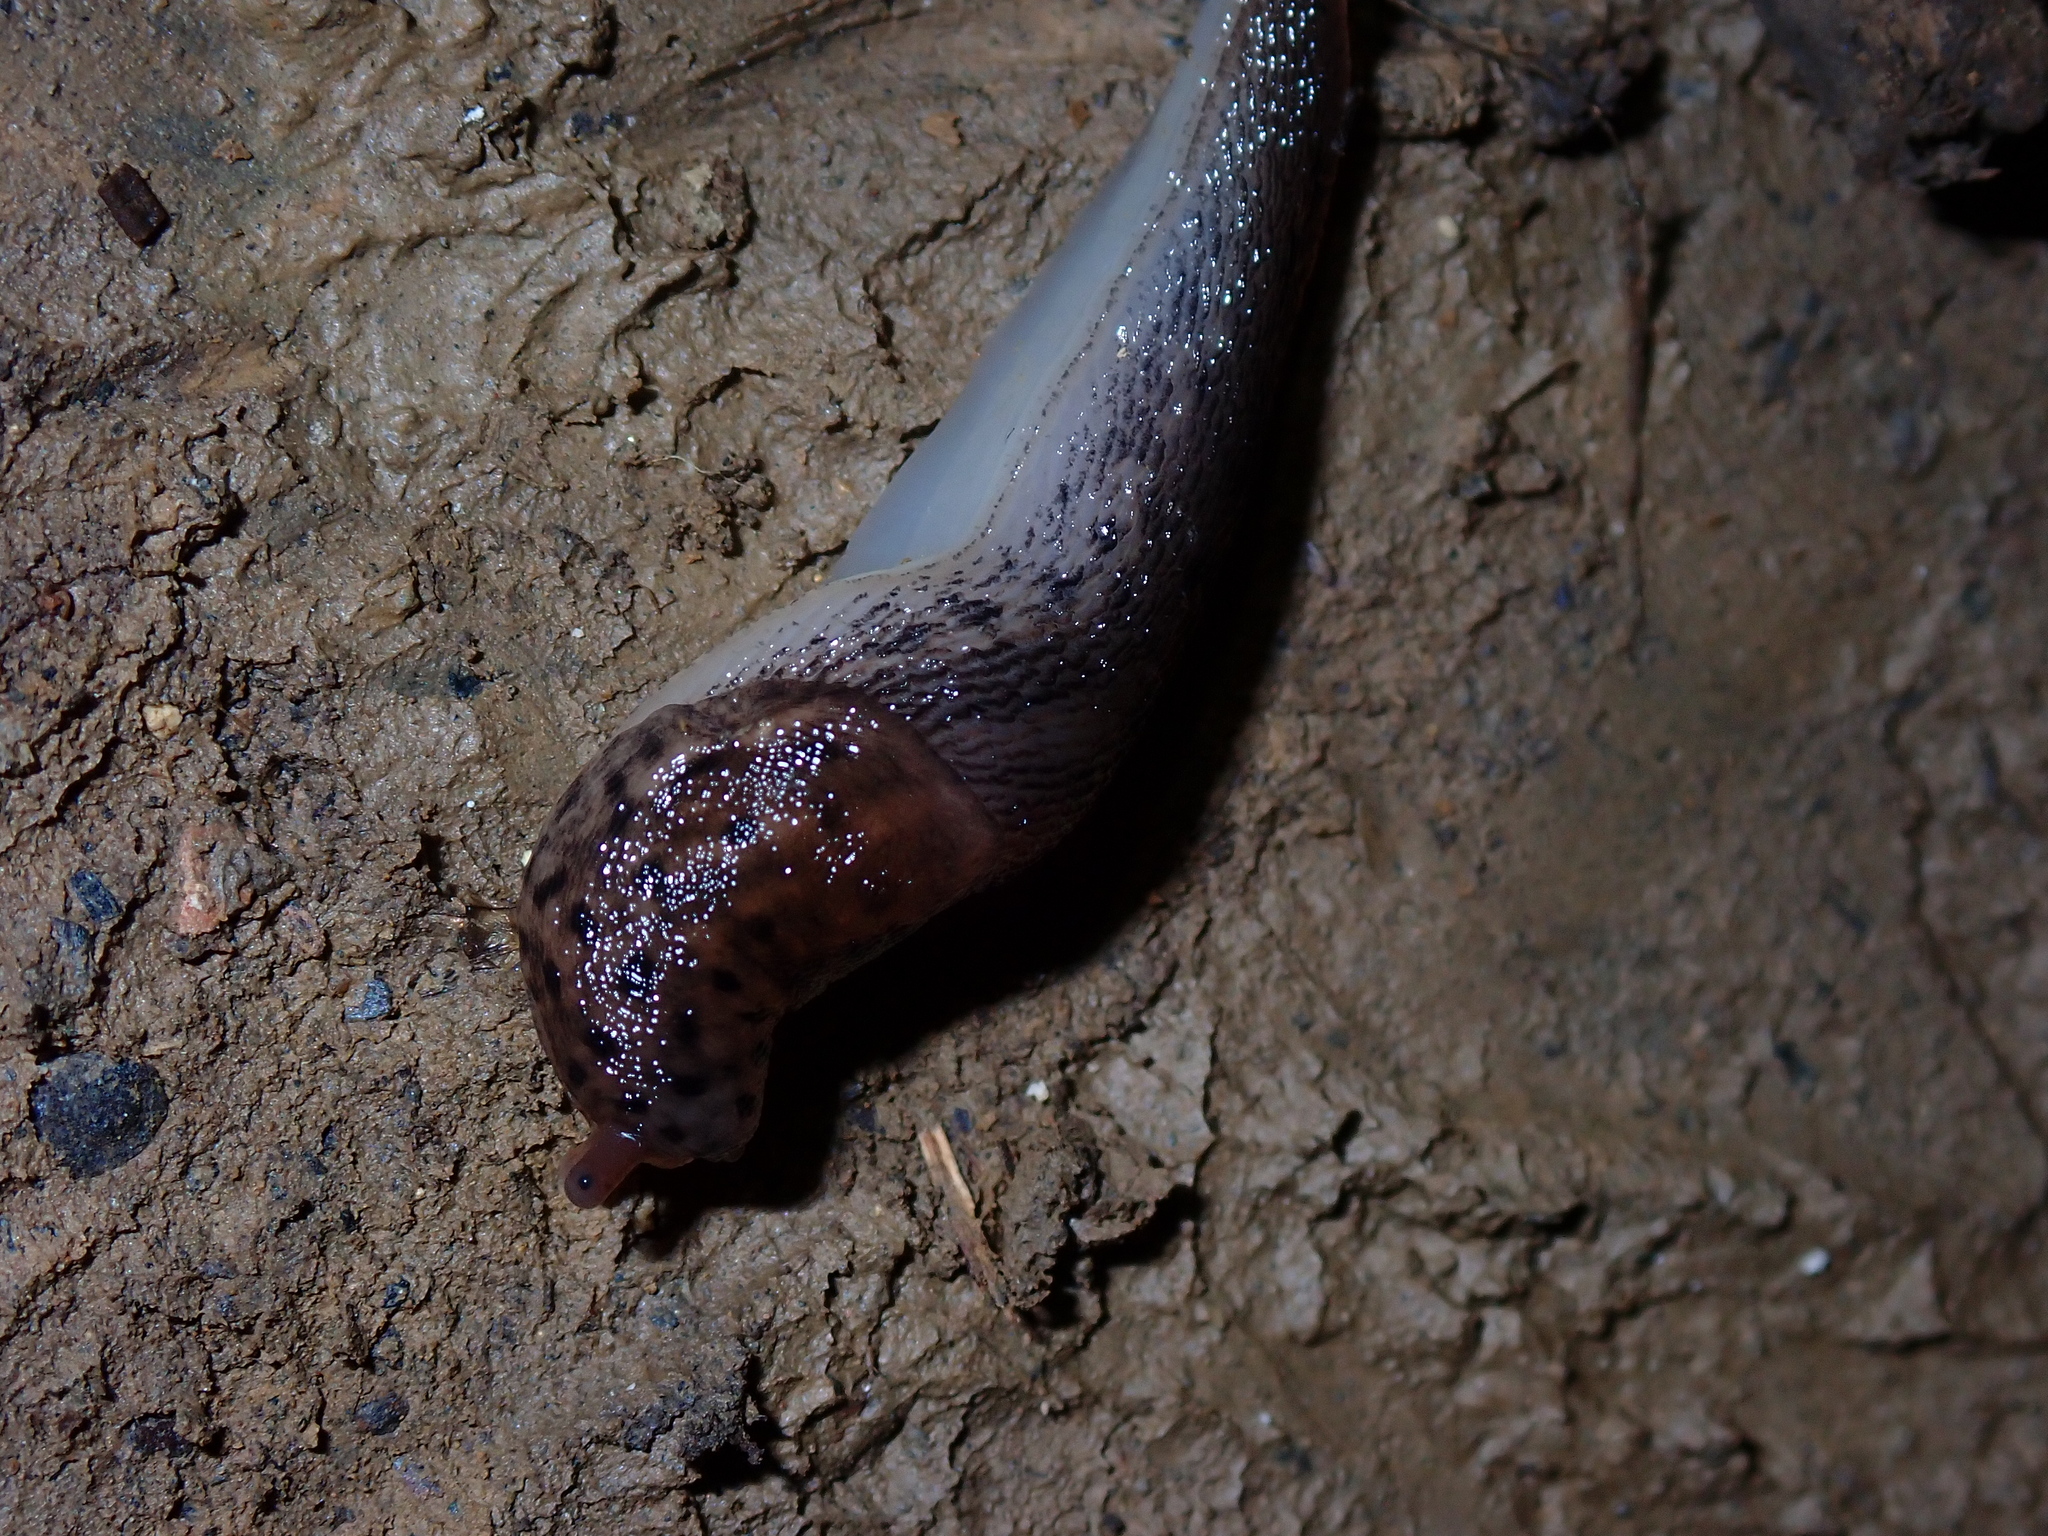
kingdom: Animalia
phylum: Mollusca
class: Gastropoda
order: Stylommatophora
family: Limacidae
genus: Limax
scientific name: Limax maximus
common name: Great grey slug
